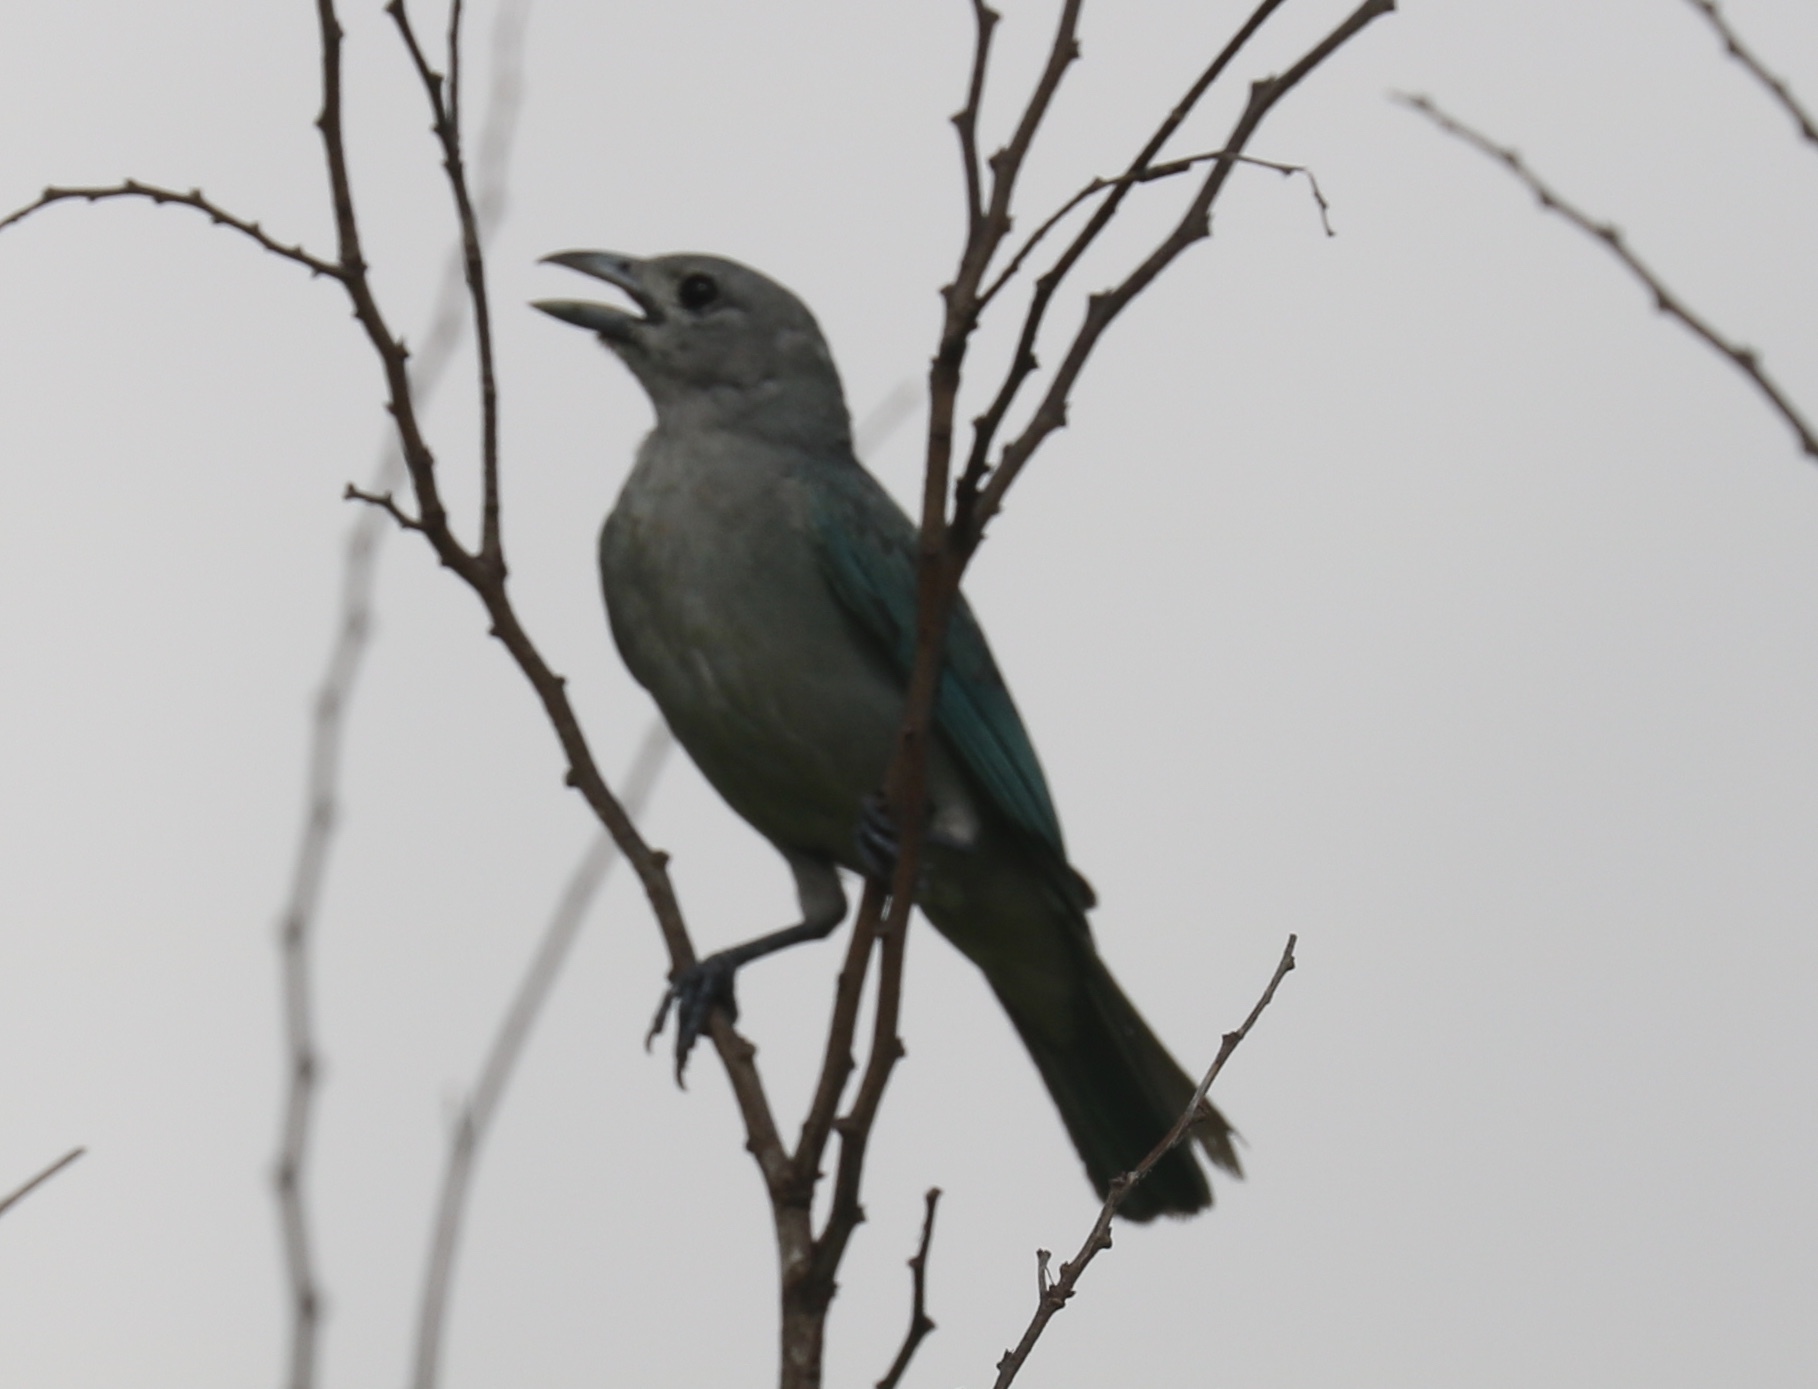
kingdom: Animalia
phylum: Chordata
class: Aves
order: Passeriformes
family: Thraupidae
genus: Thraupis
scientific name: Thraupis sayaca
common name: Sayaca tanager
